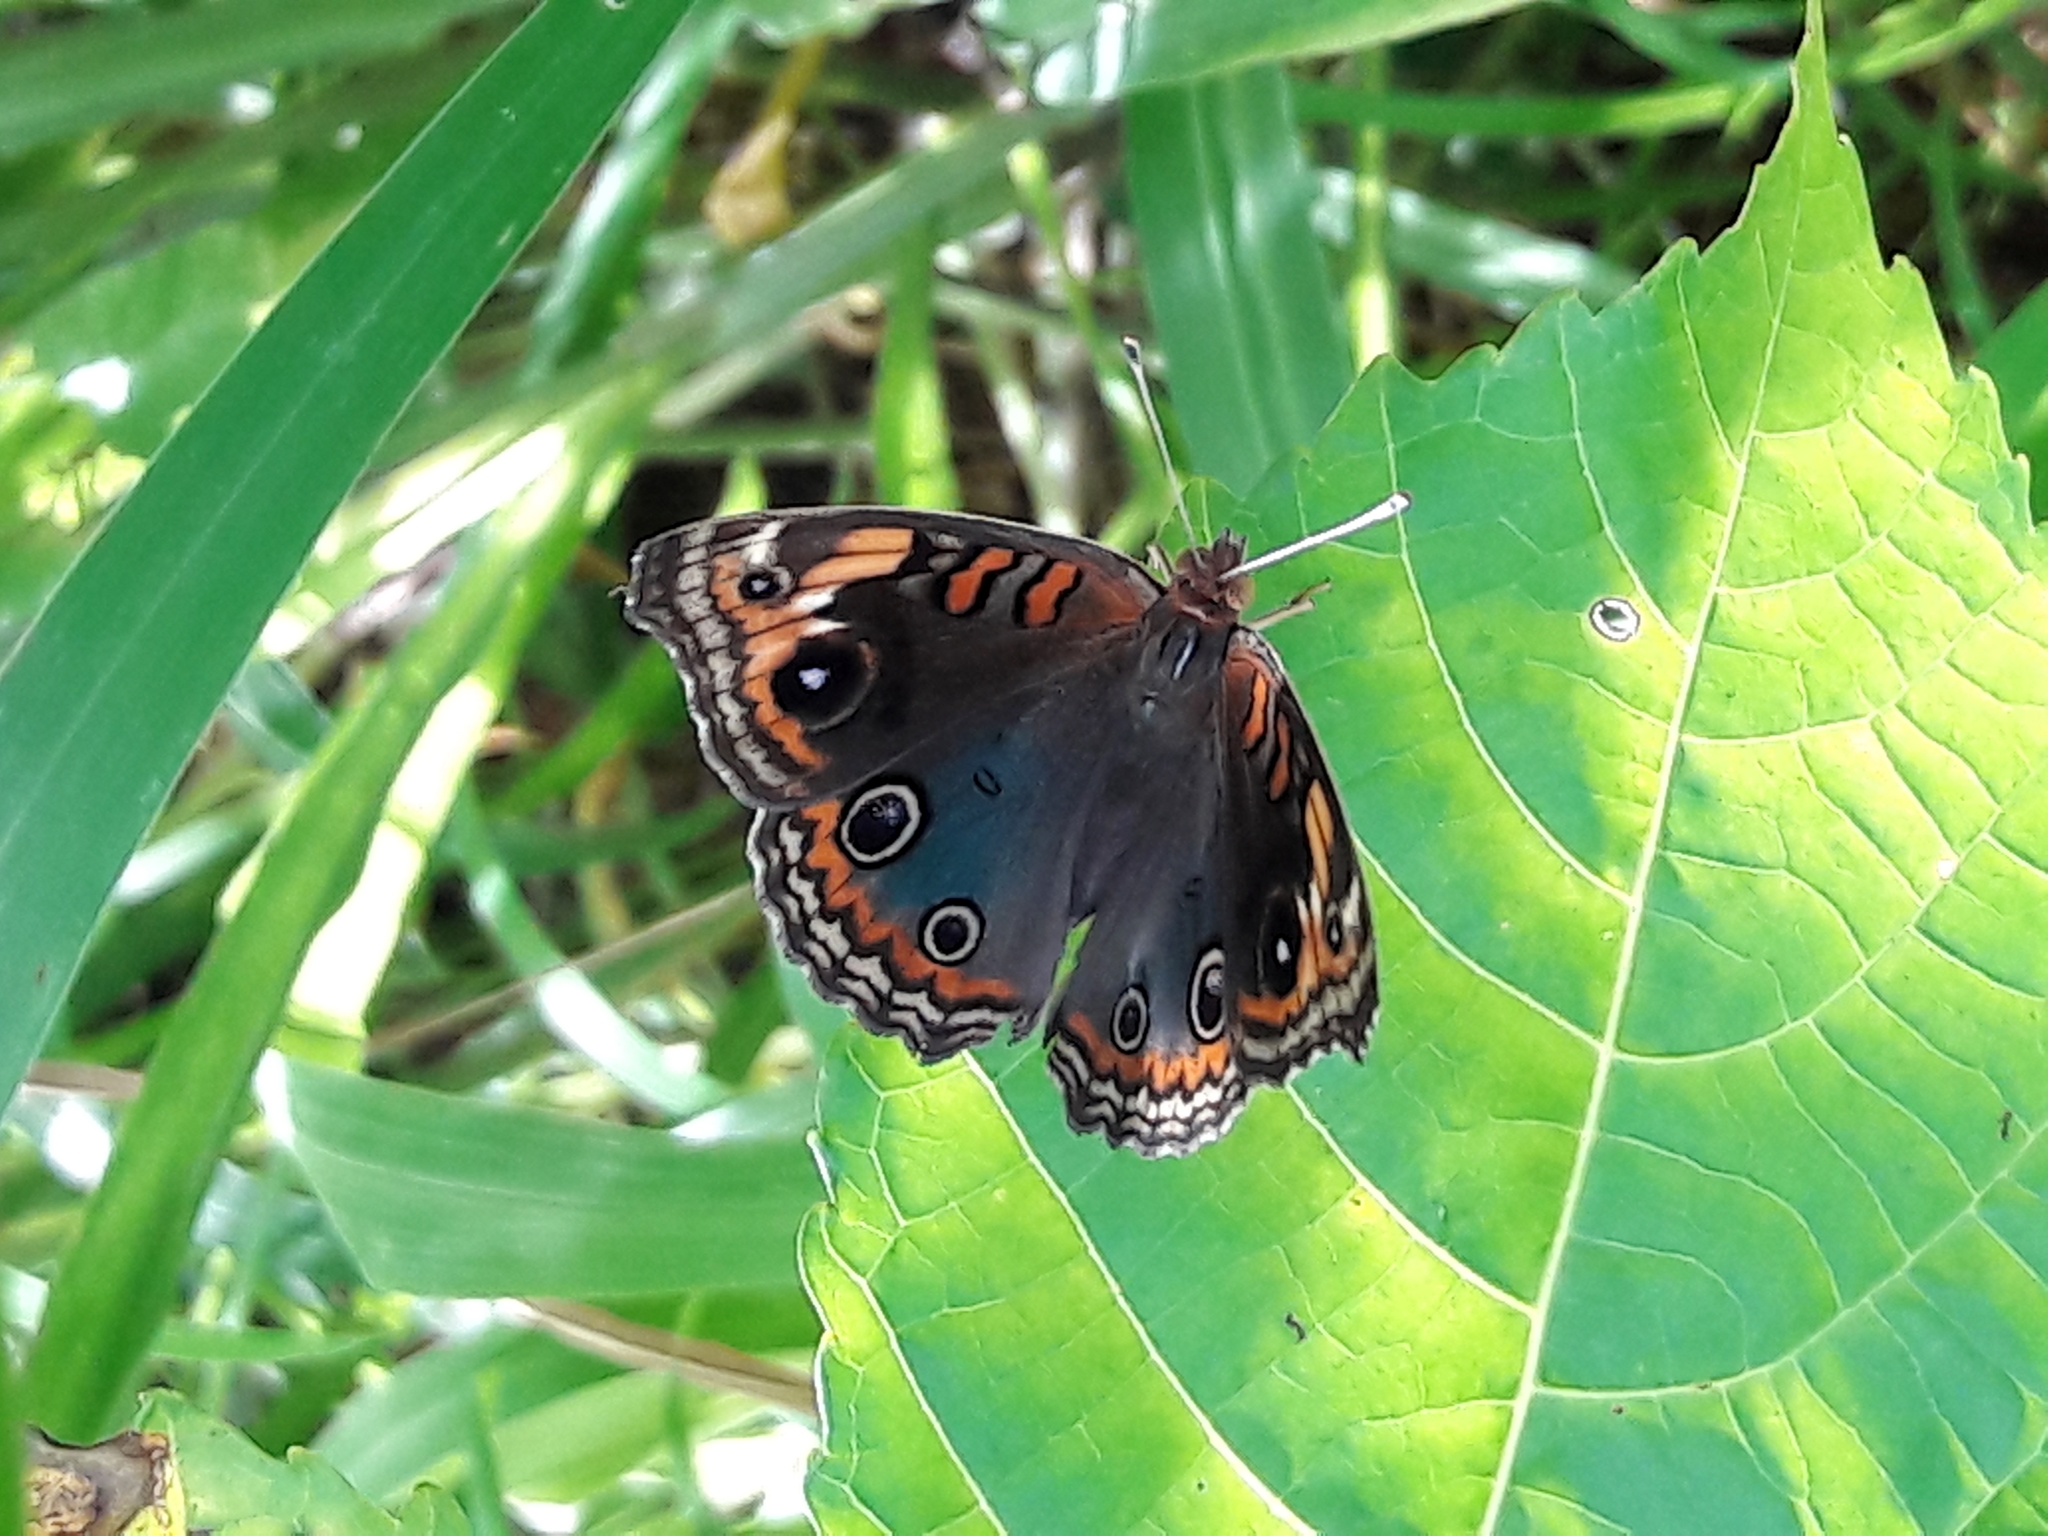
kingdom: Animalia
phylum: Arthropoda
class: Insecta
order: Lepidoptera
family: Nymphalidae
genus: Junonia
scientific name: Junonia evarete
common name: Black mangrove buckeye
